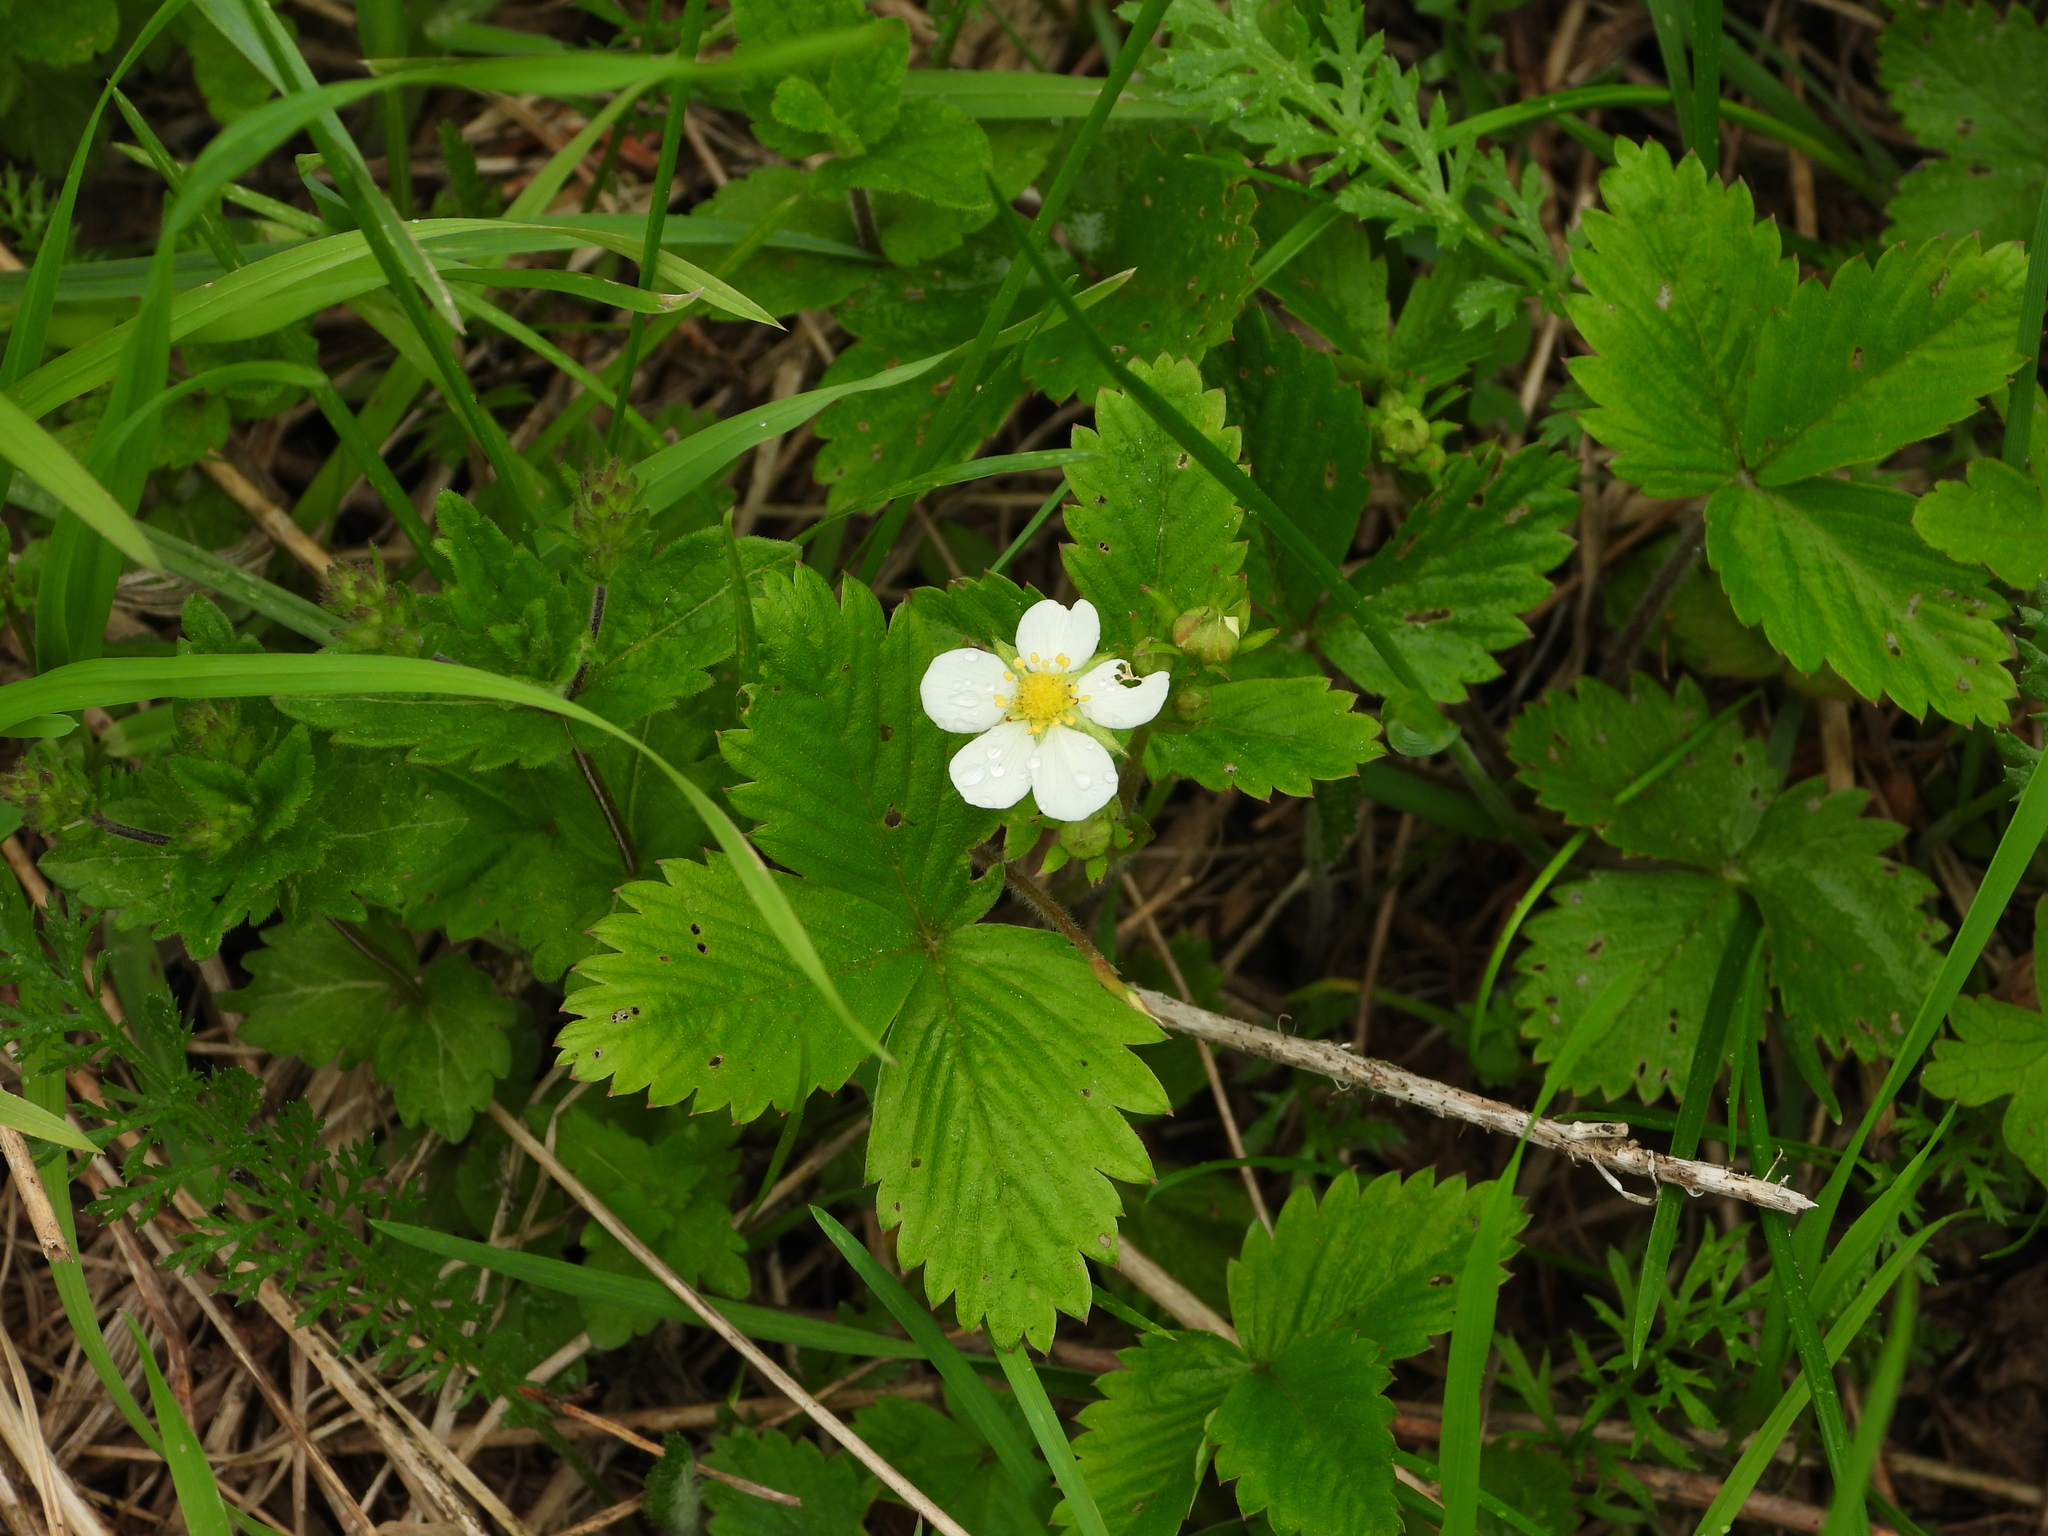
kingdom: Plantae
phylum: Tracheophyta
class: Magnoliopsida
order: Rosales
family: Rosaceae
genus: Fragaria
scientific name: Fragaria vesca
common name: Wild strawberry
